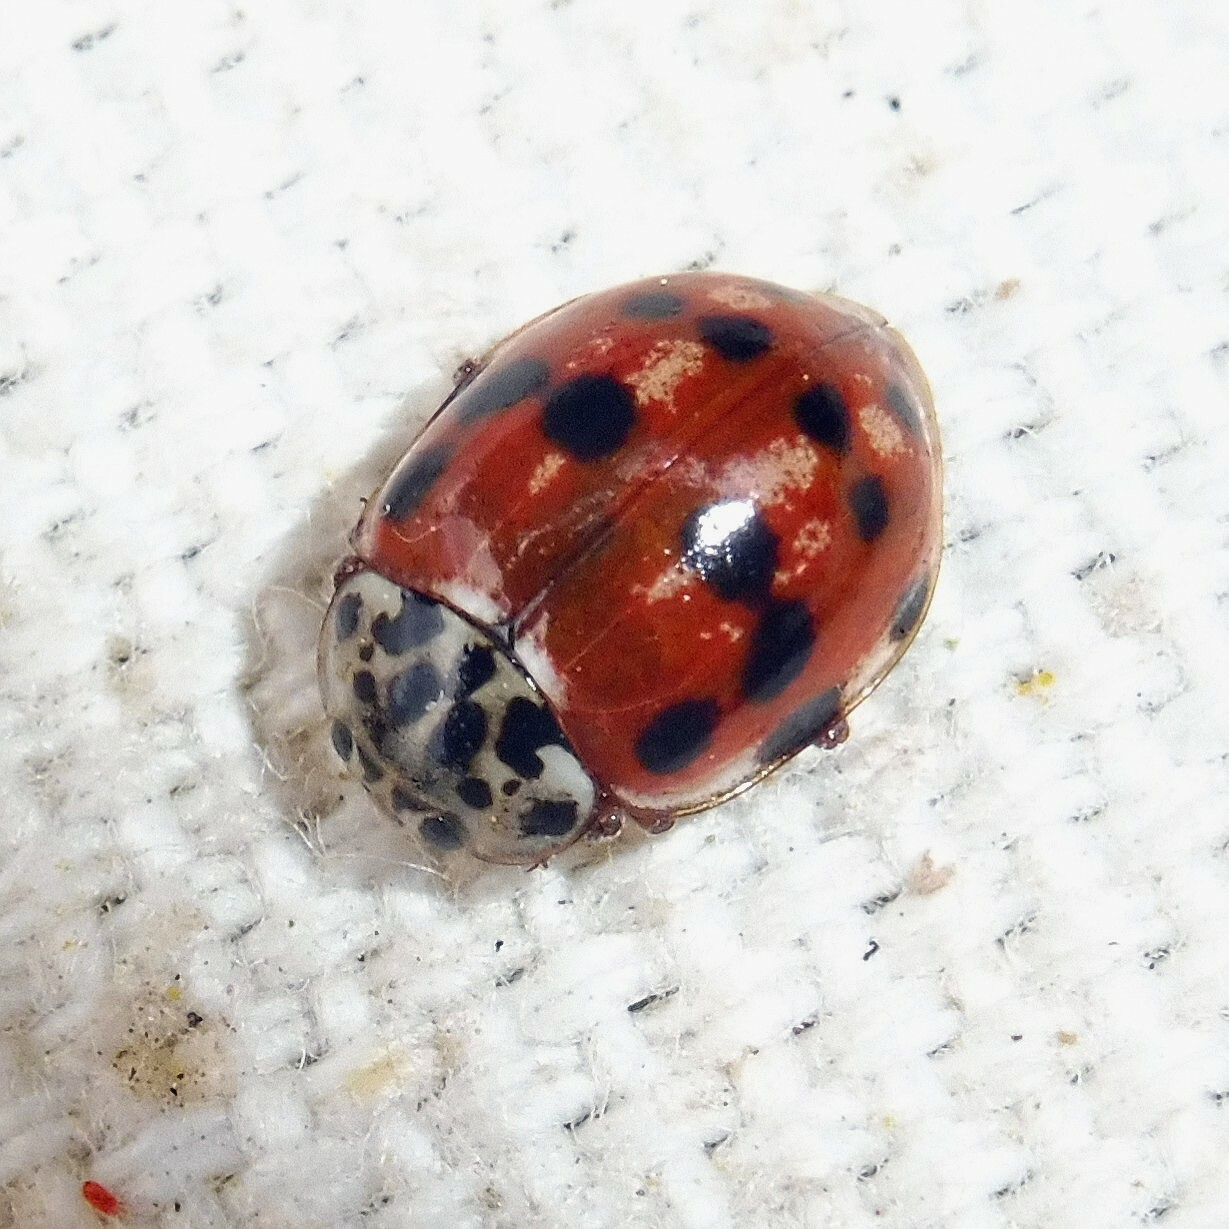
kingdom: Animalia
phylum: Arthropoda
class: Insecta
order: Coleoptera
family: Coccinellidae
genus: Harmonia
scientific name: Harmonia quadripunctata
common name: Cream-streaked ladybird
